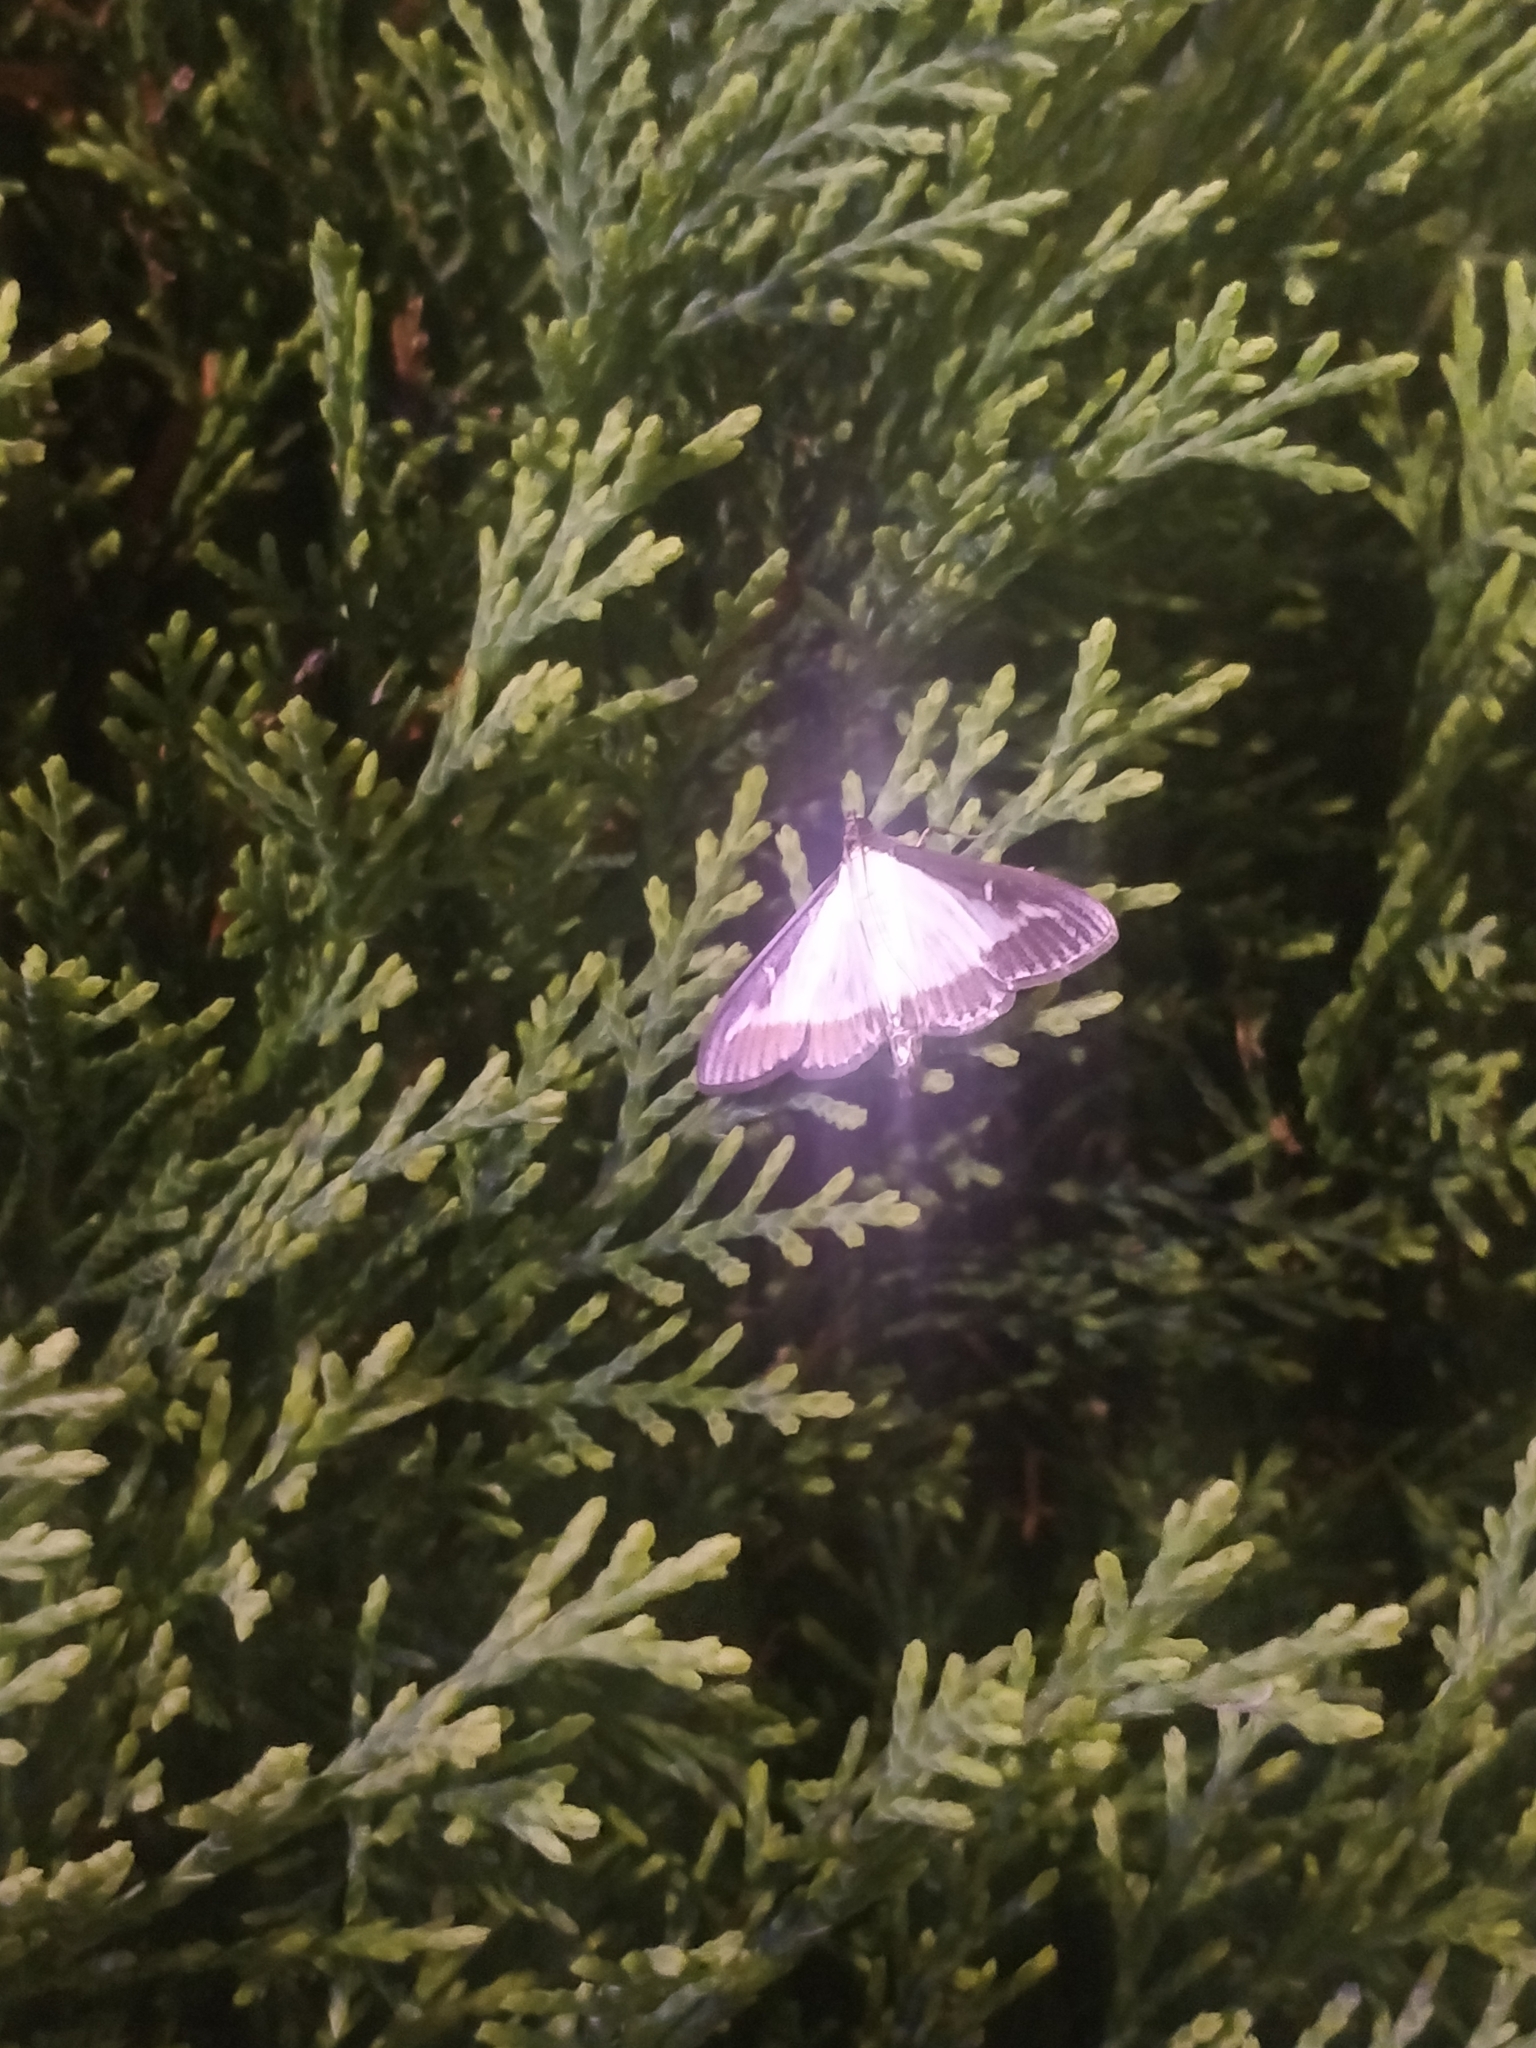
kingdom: Animalia
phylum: Arthropoda
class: Insecta
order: Lepidoptera
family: Crambidae
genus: Cydalima
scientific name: Cydalima perspectalis
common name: Box tree moth
